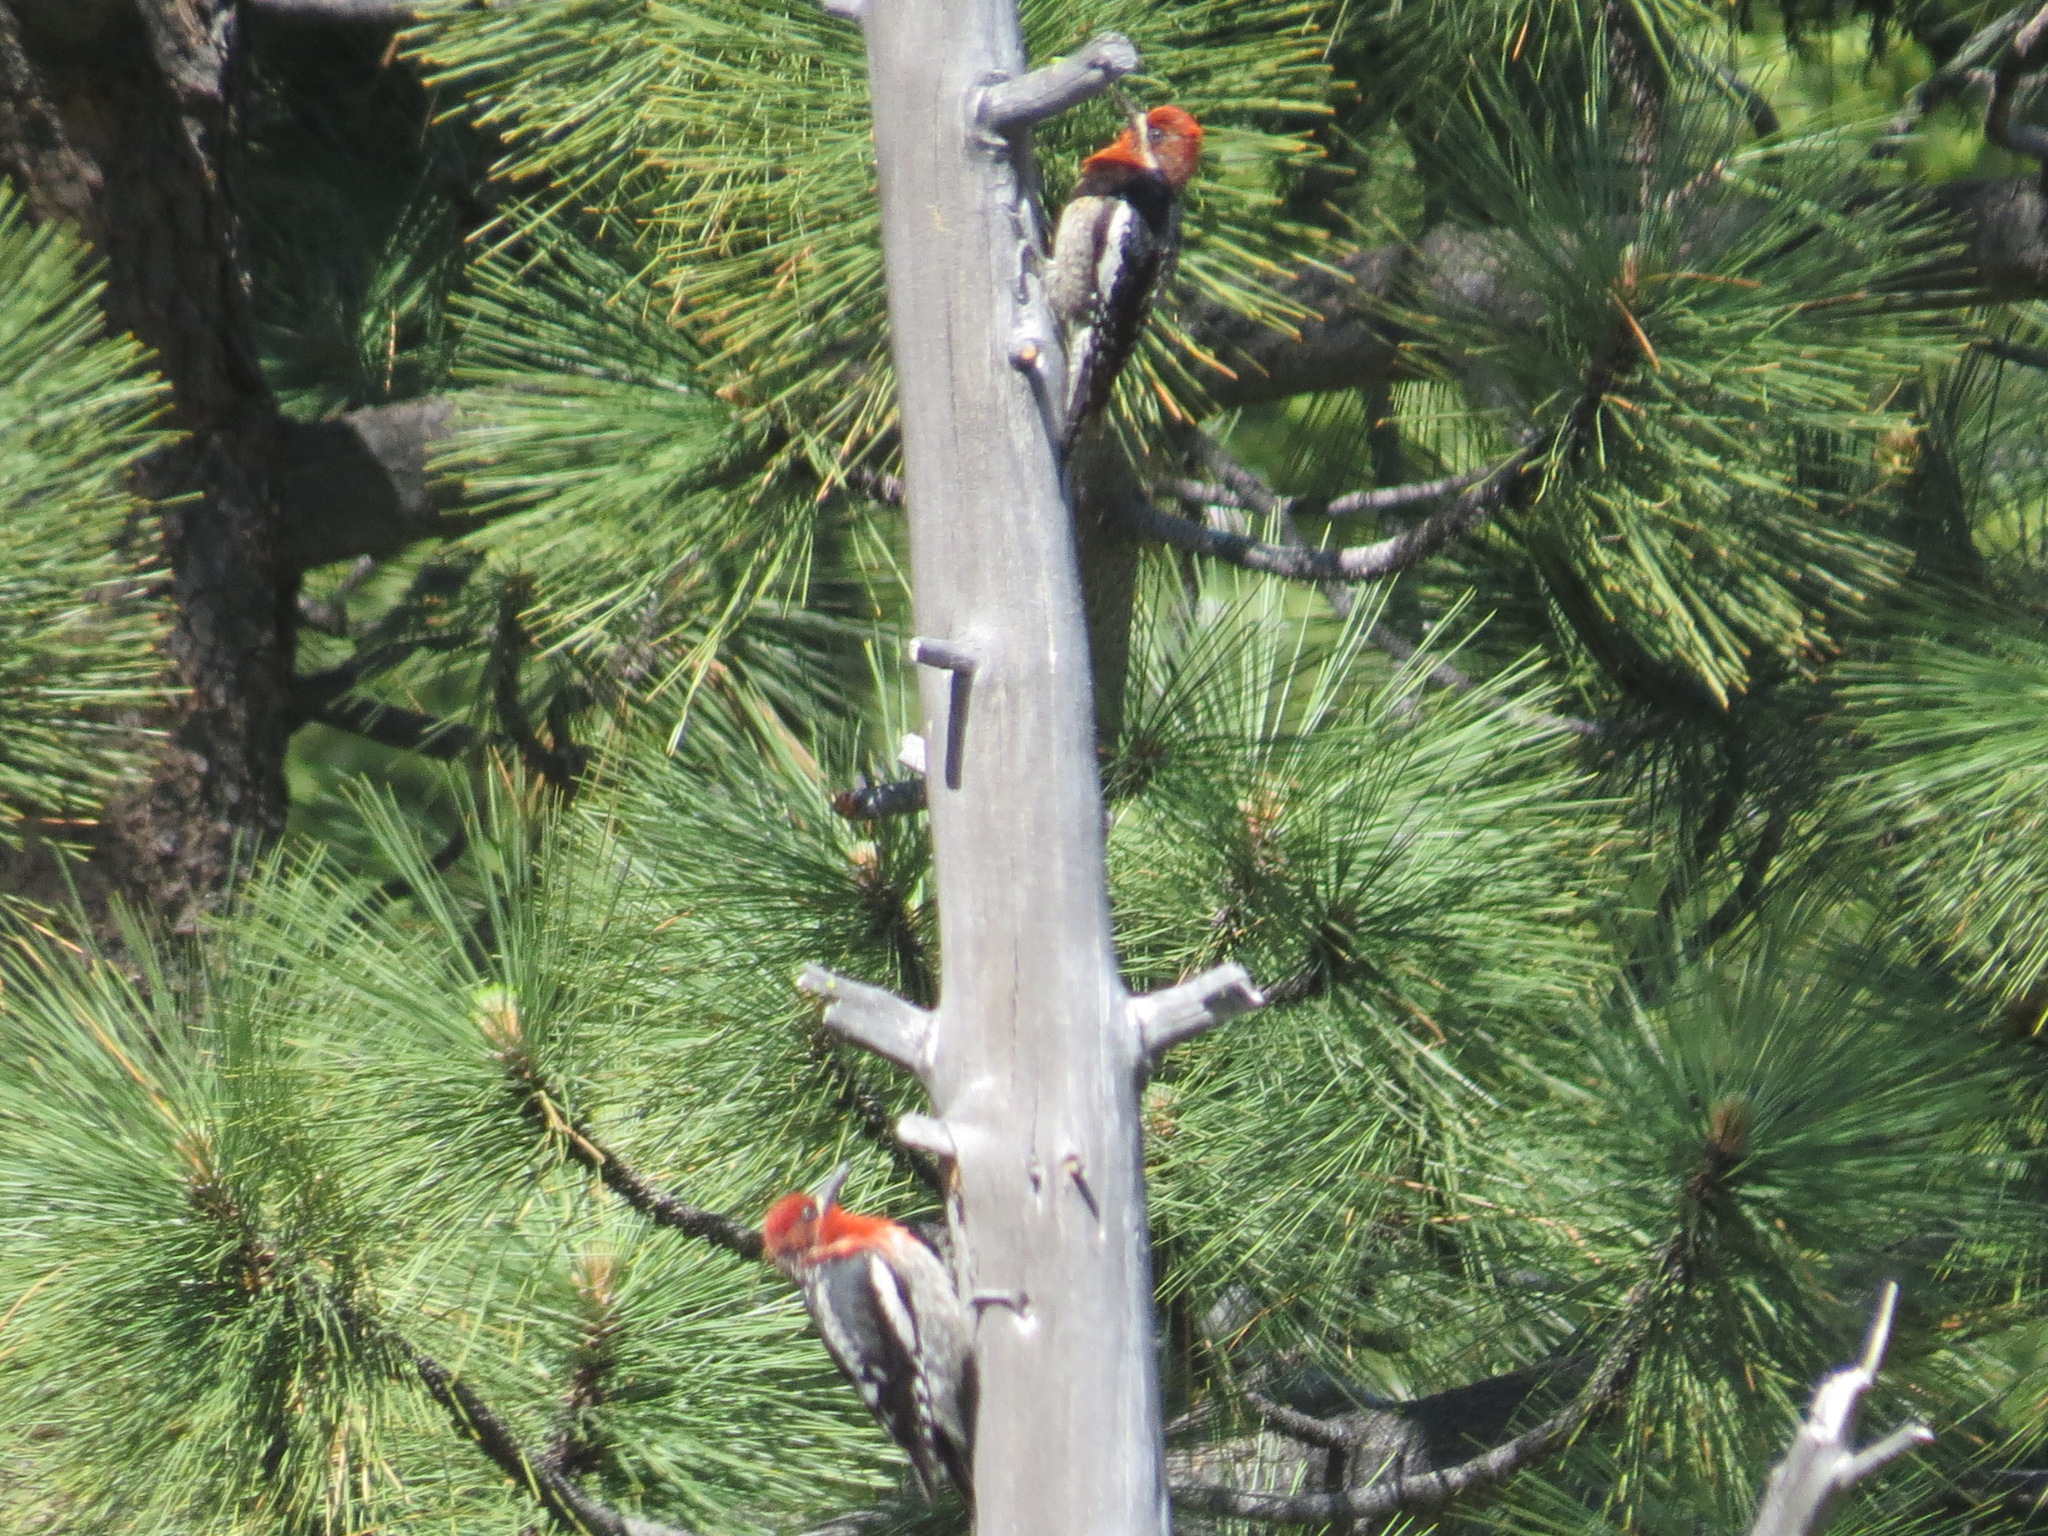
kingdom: Animalia
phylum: Chordata
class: Aves
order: Piciformes
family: Picidae
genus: Sphyrapicus
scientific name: Sphyrapicus ruber
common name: Red-breasted sapsucker
